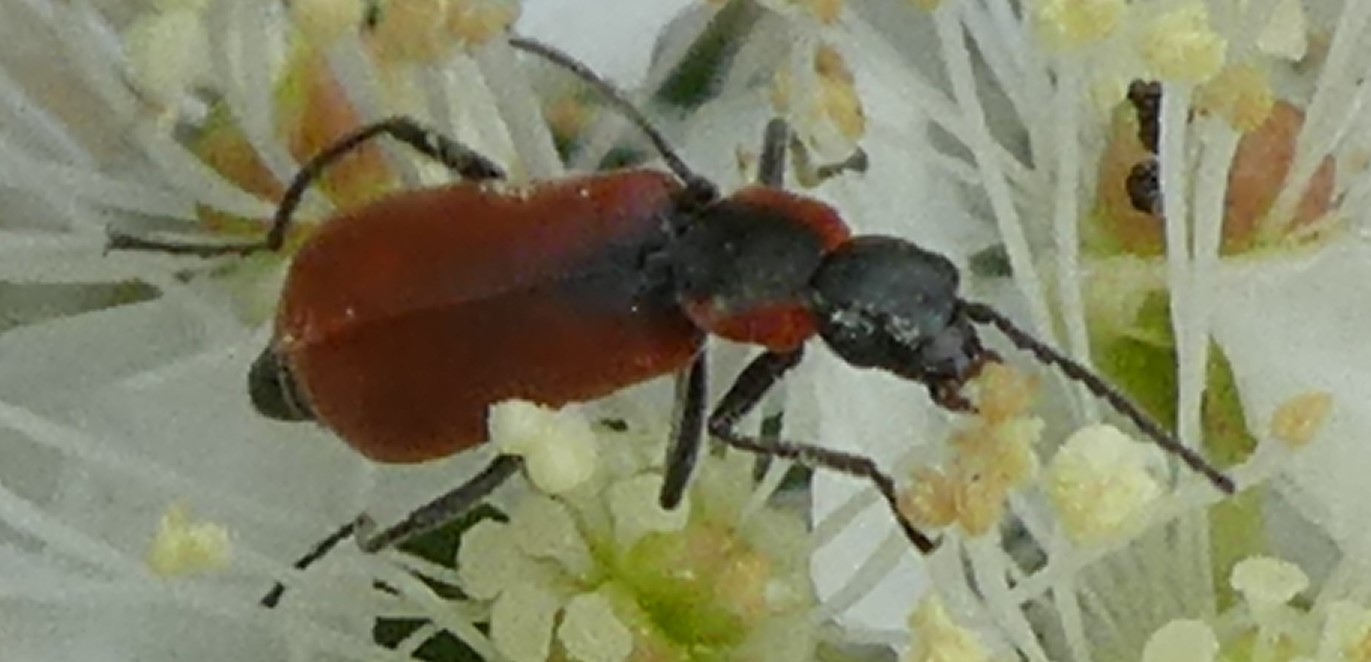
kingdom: Animalia
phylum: Arthropoda
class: Insecta
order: Coleoptera
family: Melyridae
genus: Anthocomus
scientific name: Anthocomus rufus
